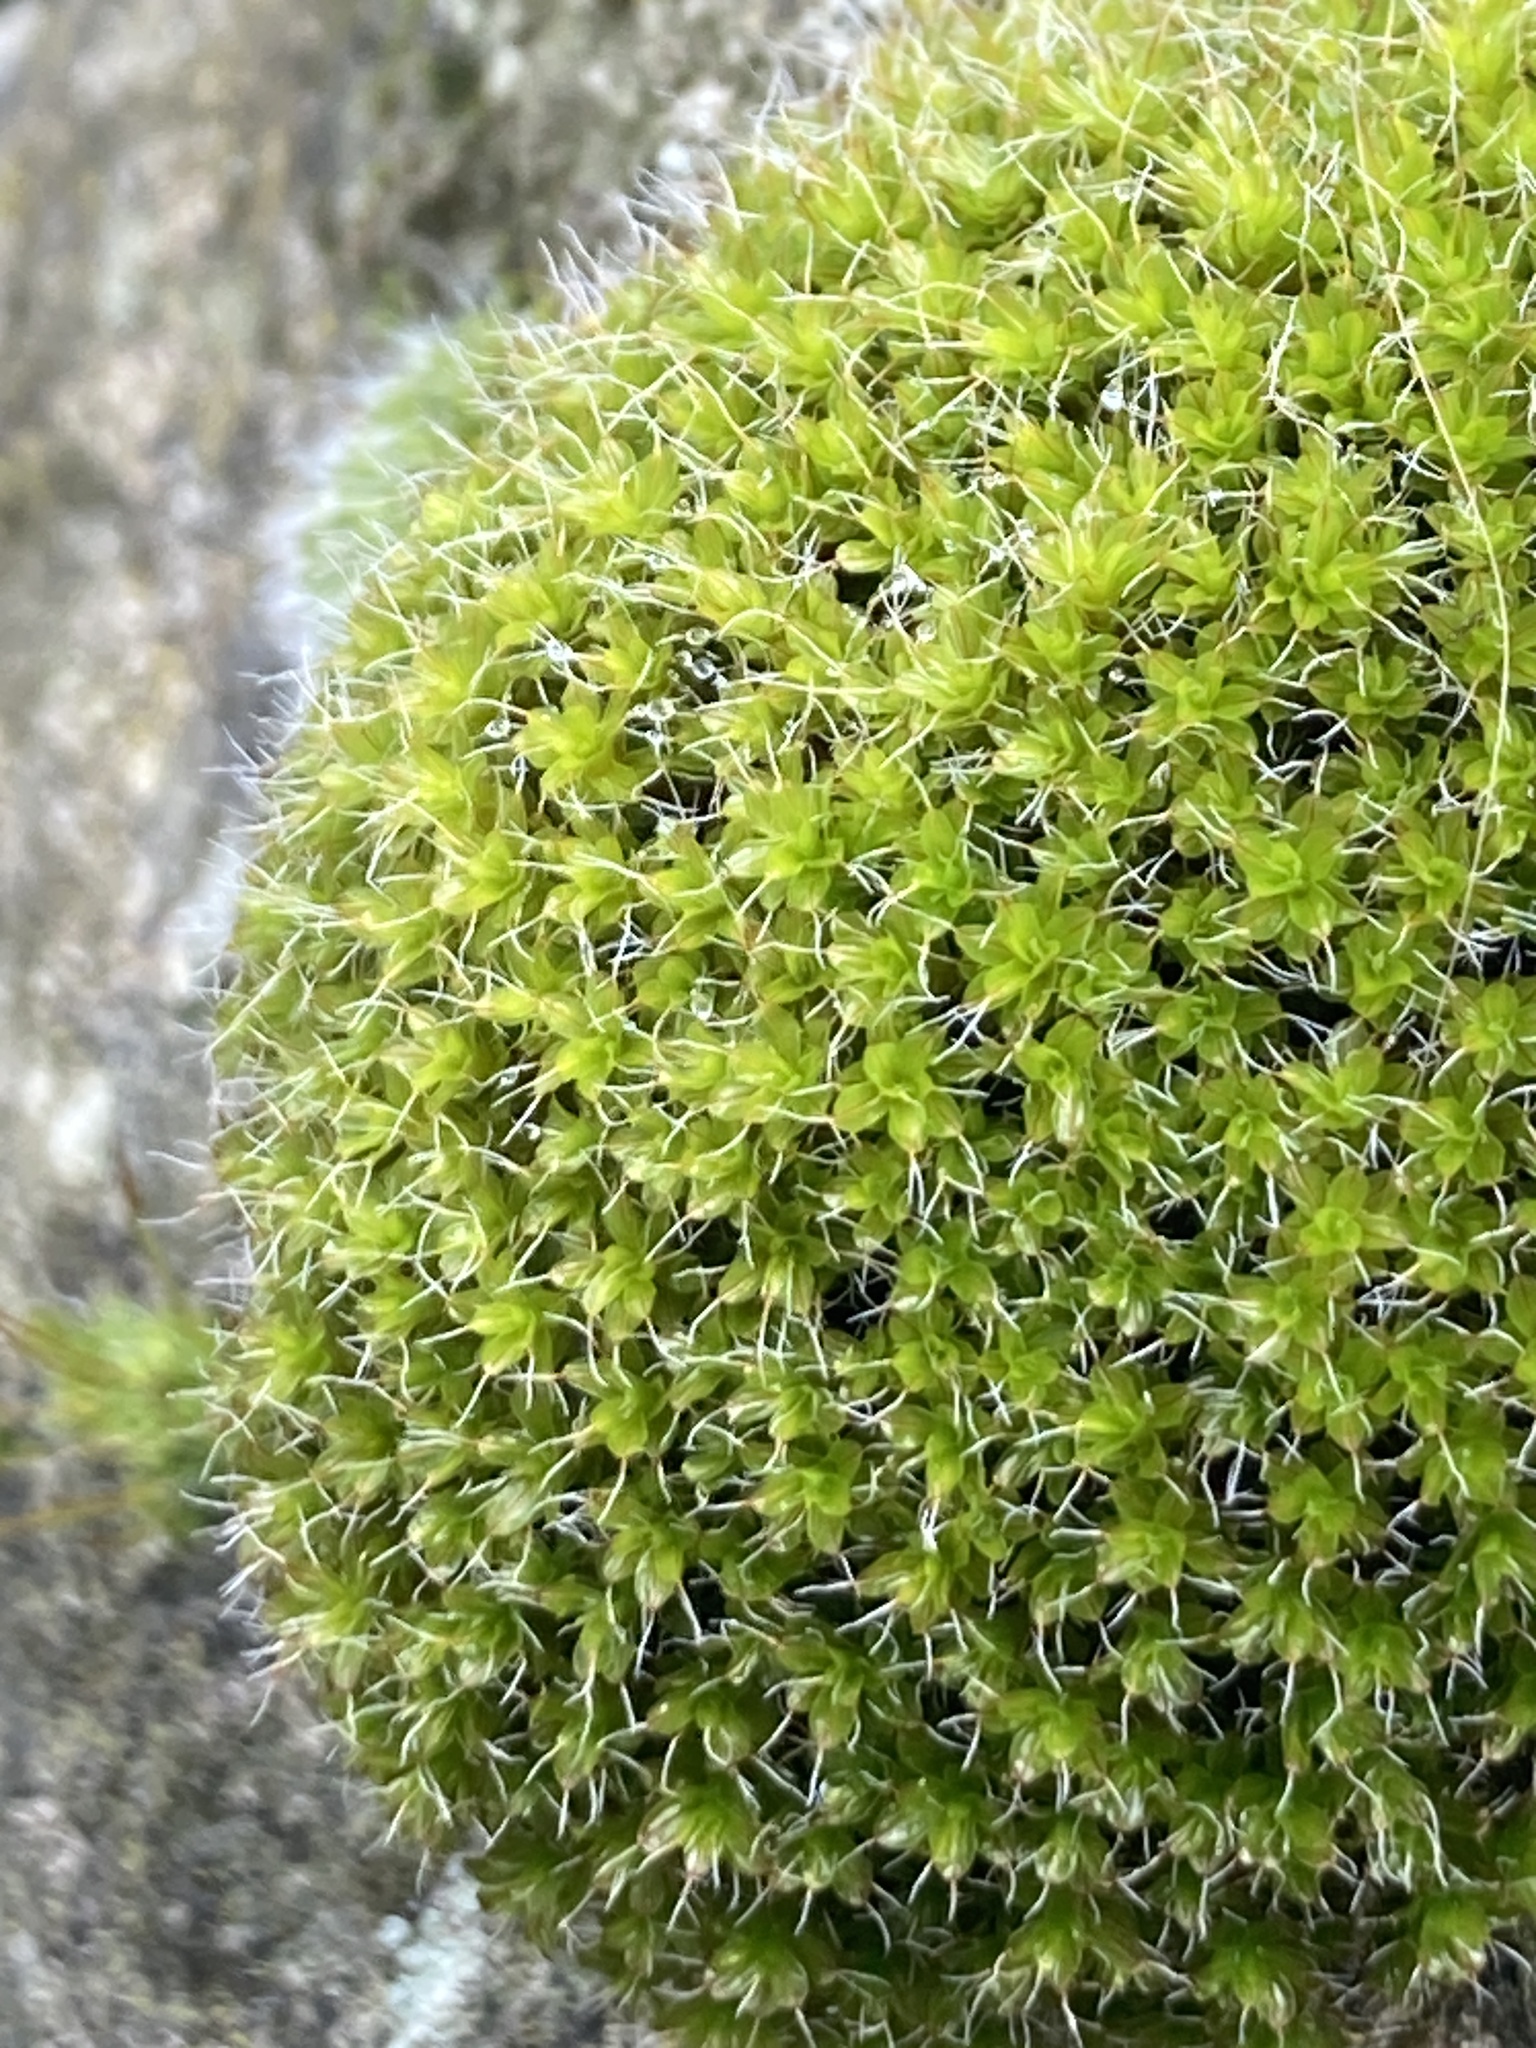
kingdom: Plantae
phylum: Bryophyta
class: Bryopsida
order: Pottiales
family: Pottiaceae
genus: Syntrichia
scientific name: Syntrichia montana
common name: Intermediate screw-moss
